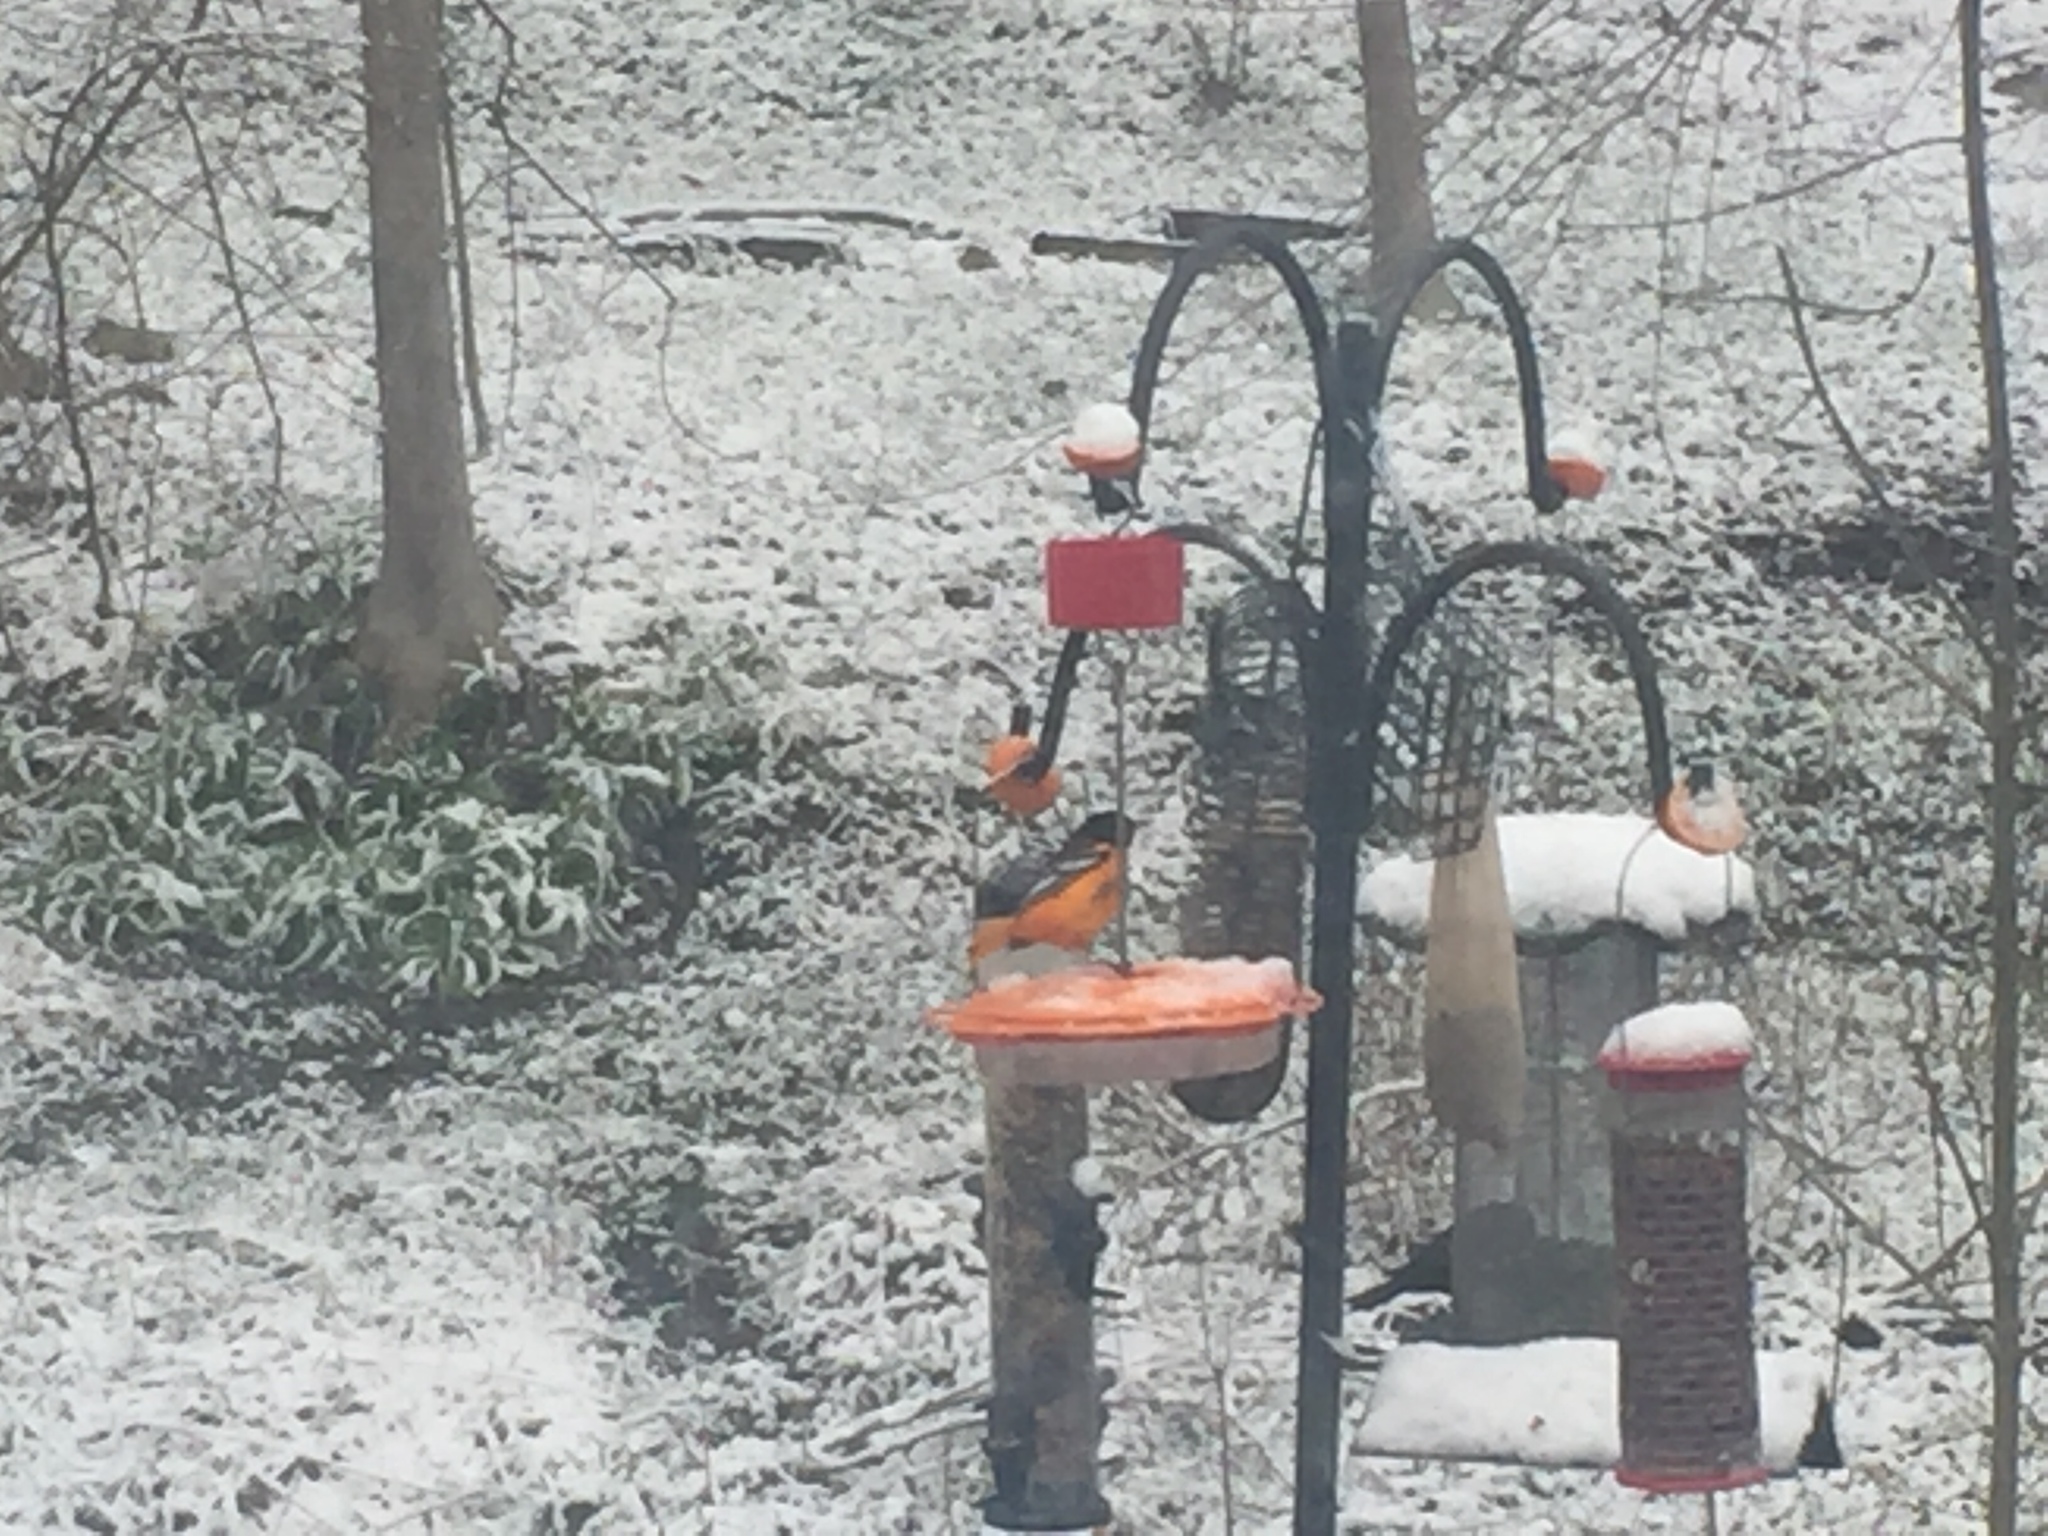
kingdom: Animalia
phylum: Chordata
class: Aves
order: Passeriformes
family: Icteridae
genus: Icterus
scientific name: Icterus galbula
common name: Baltimore oriole
